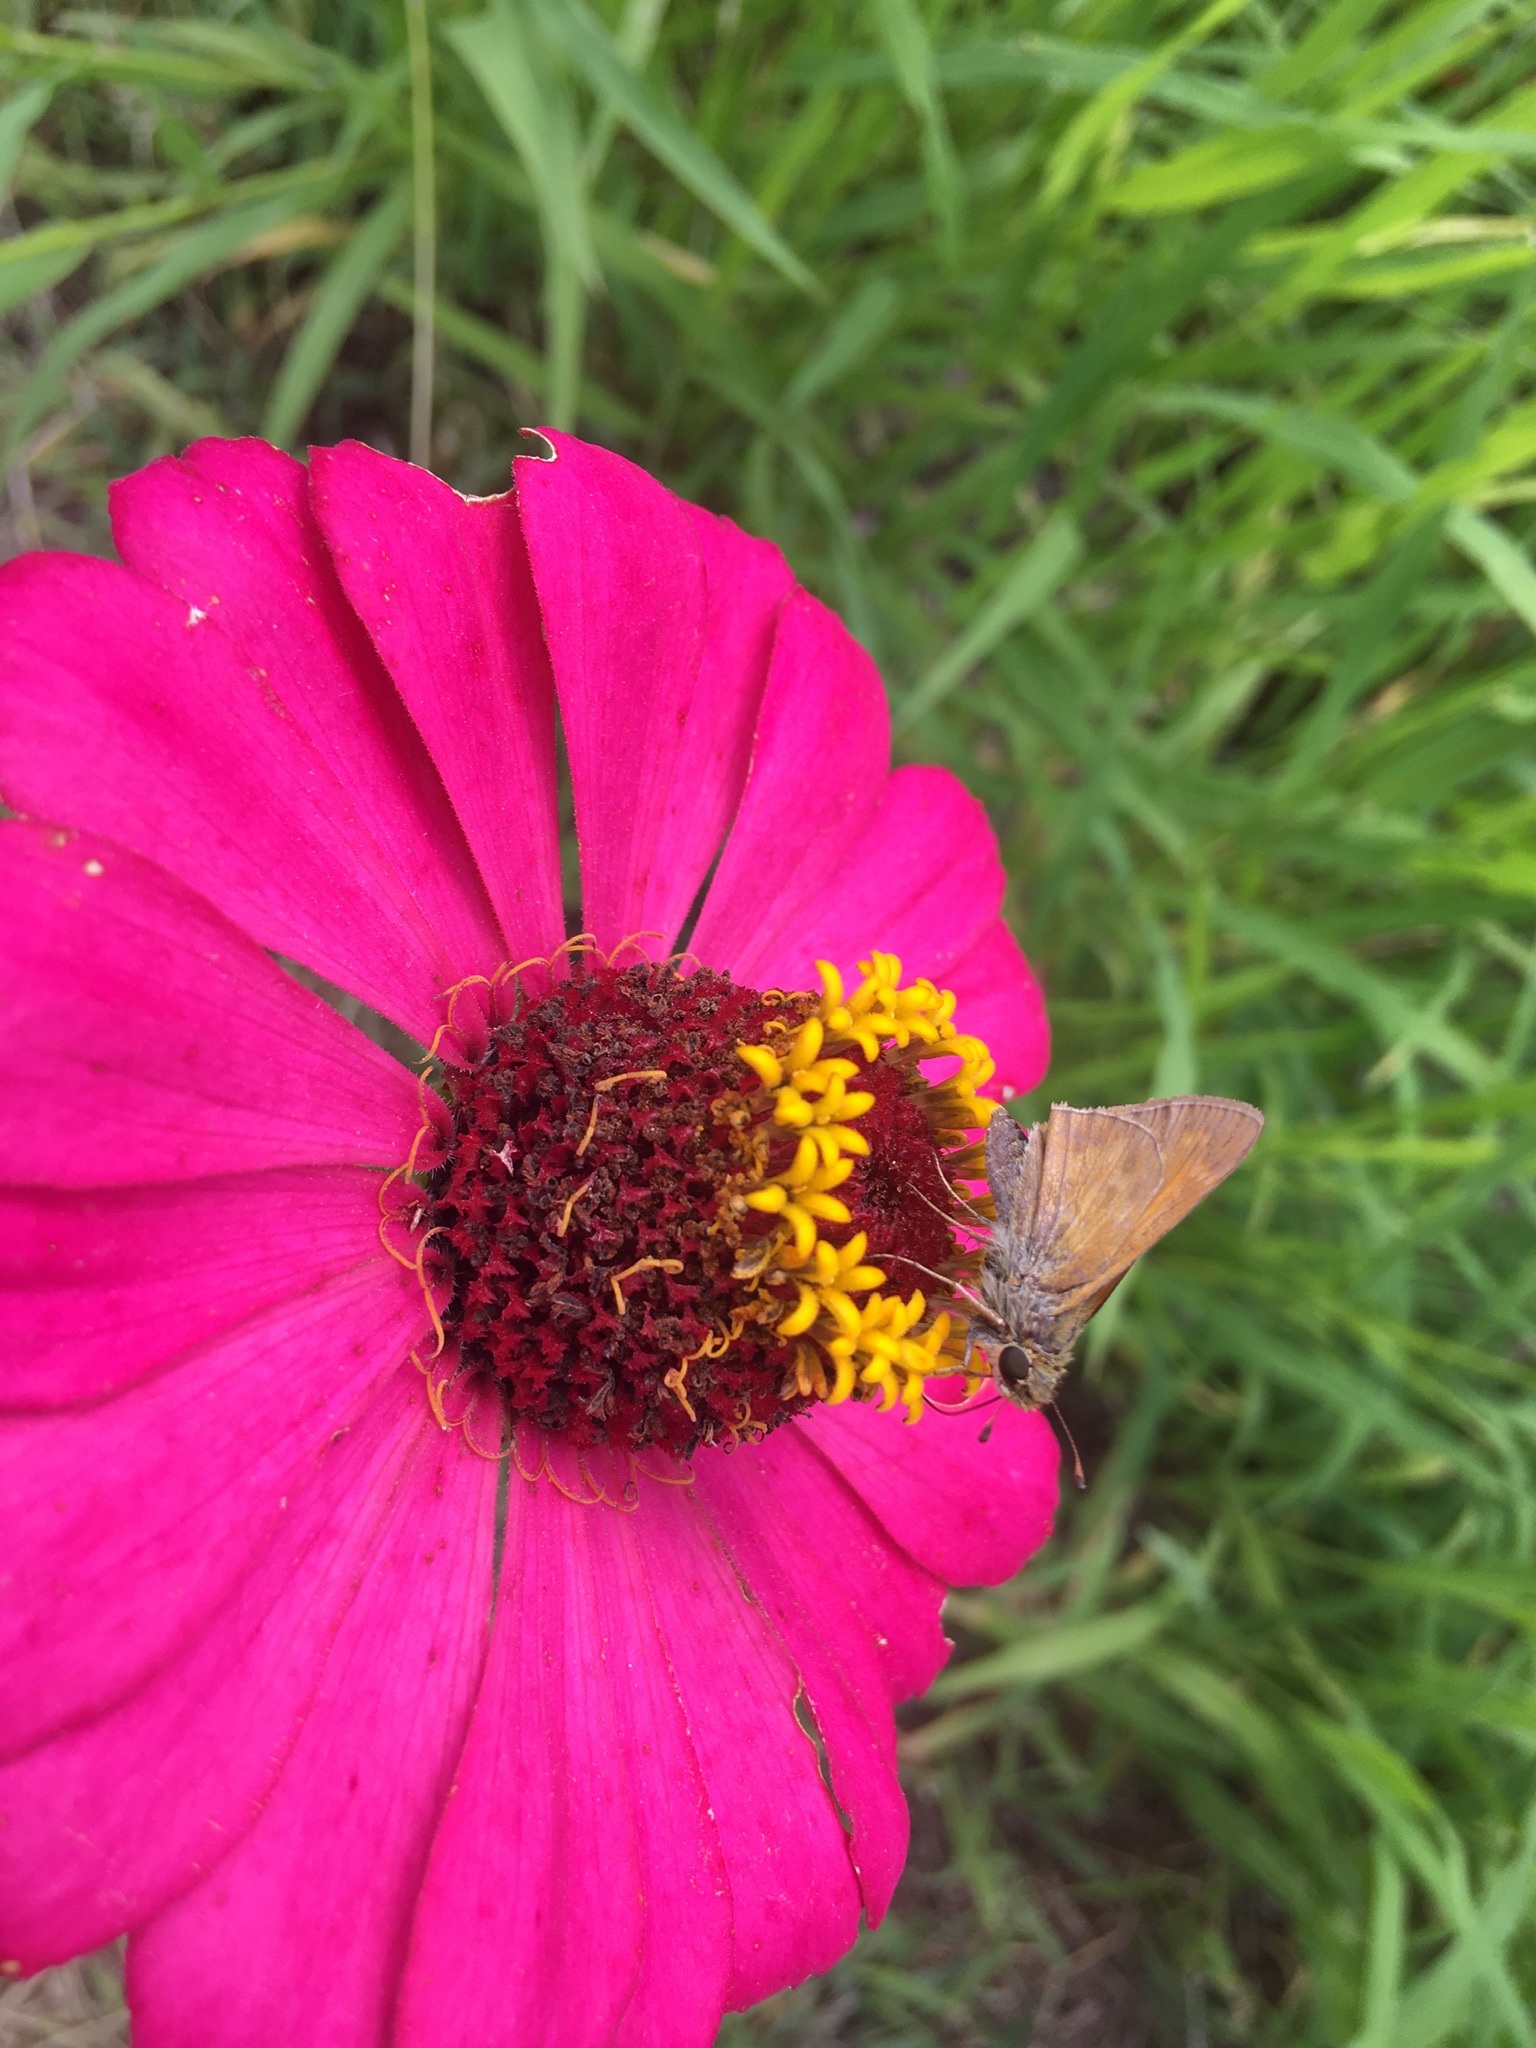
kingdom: Animalia
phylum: Arthropoda
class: Insecta
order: Lepidoptera
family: Hesperiidae
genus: Atalopedes
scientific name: Atalopedes
